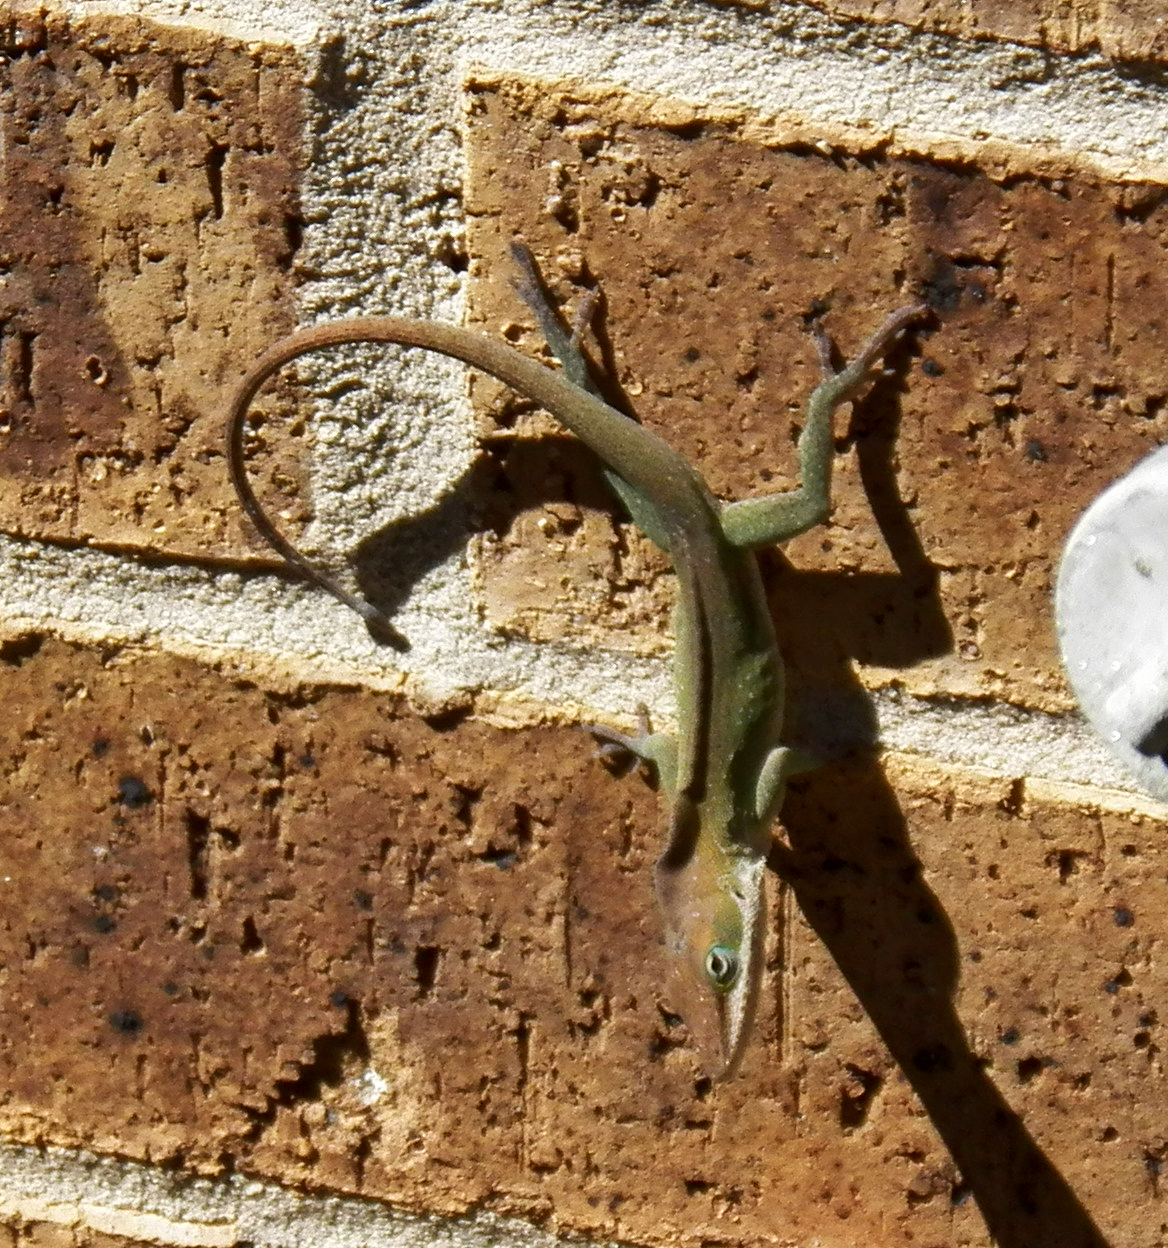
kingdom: Animalia
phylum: Chordata
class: Squamata
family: Dactyloidae
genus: Anolis
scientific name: Anolis carolinensis
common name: Green anole
